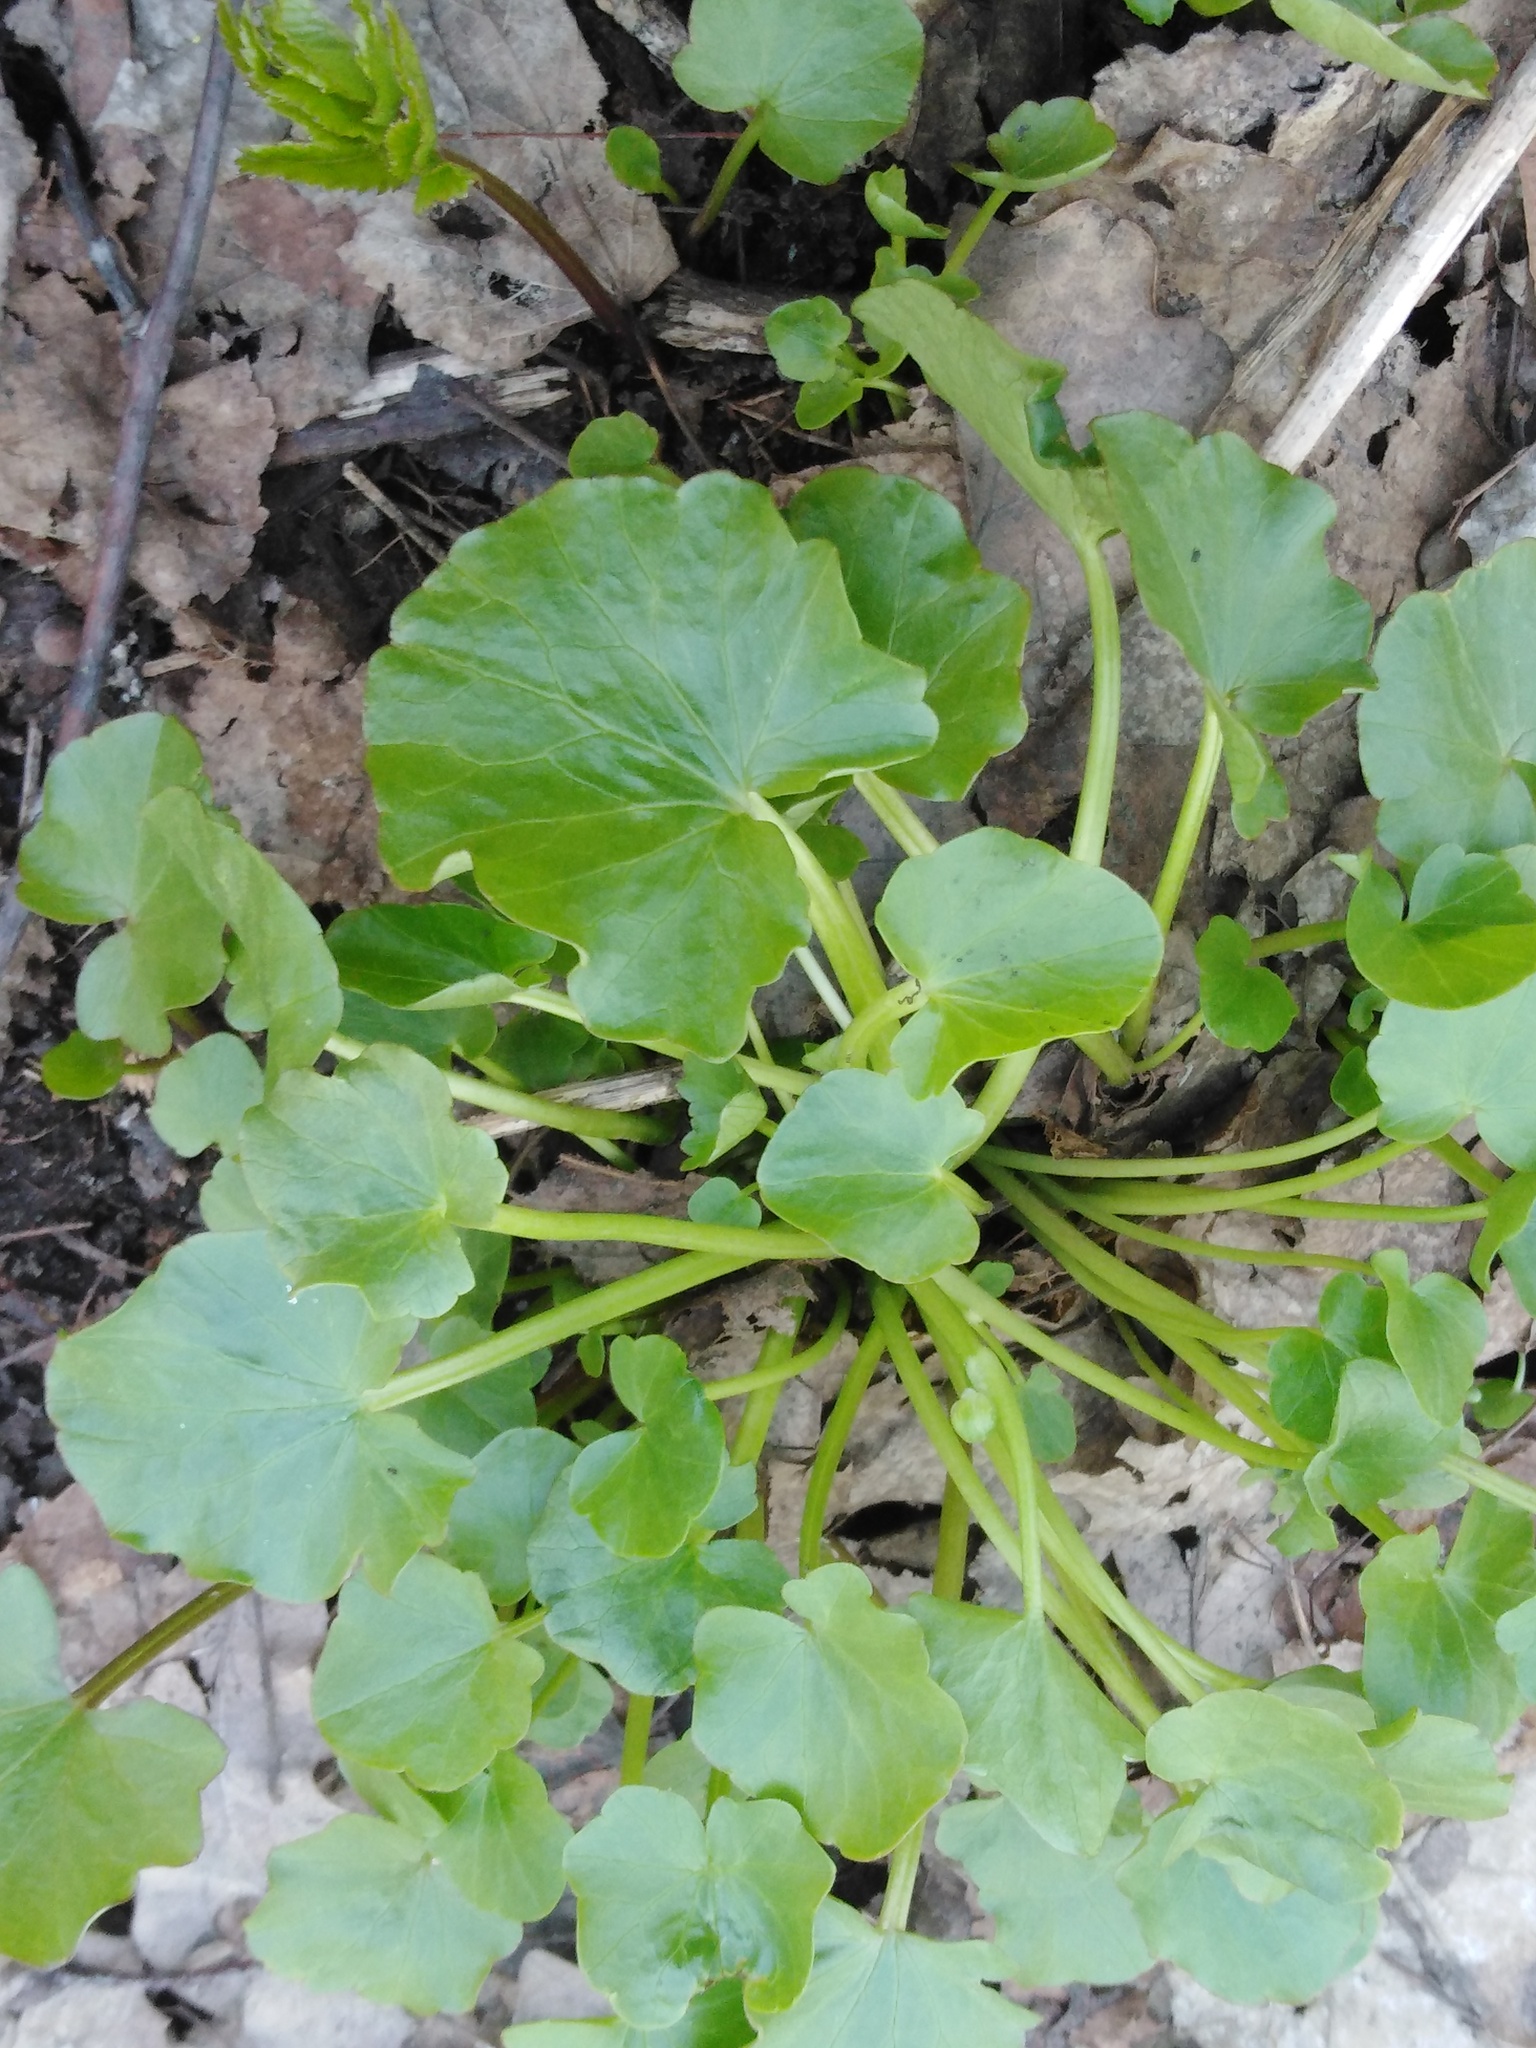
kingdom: Plantae
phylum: Tracheophyta
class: Magnoliopsida
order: Ranunculales
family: Ranunculaceae
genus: Ficaria
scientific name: Ficaria verna
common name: Lesser celandine
